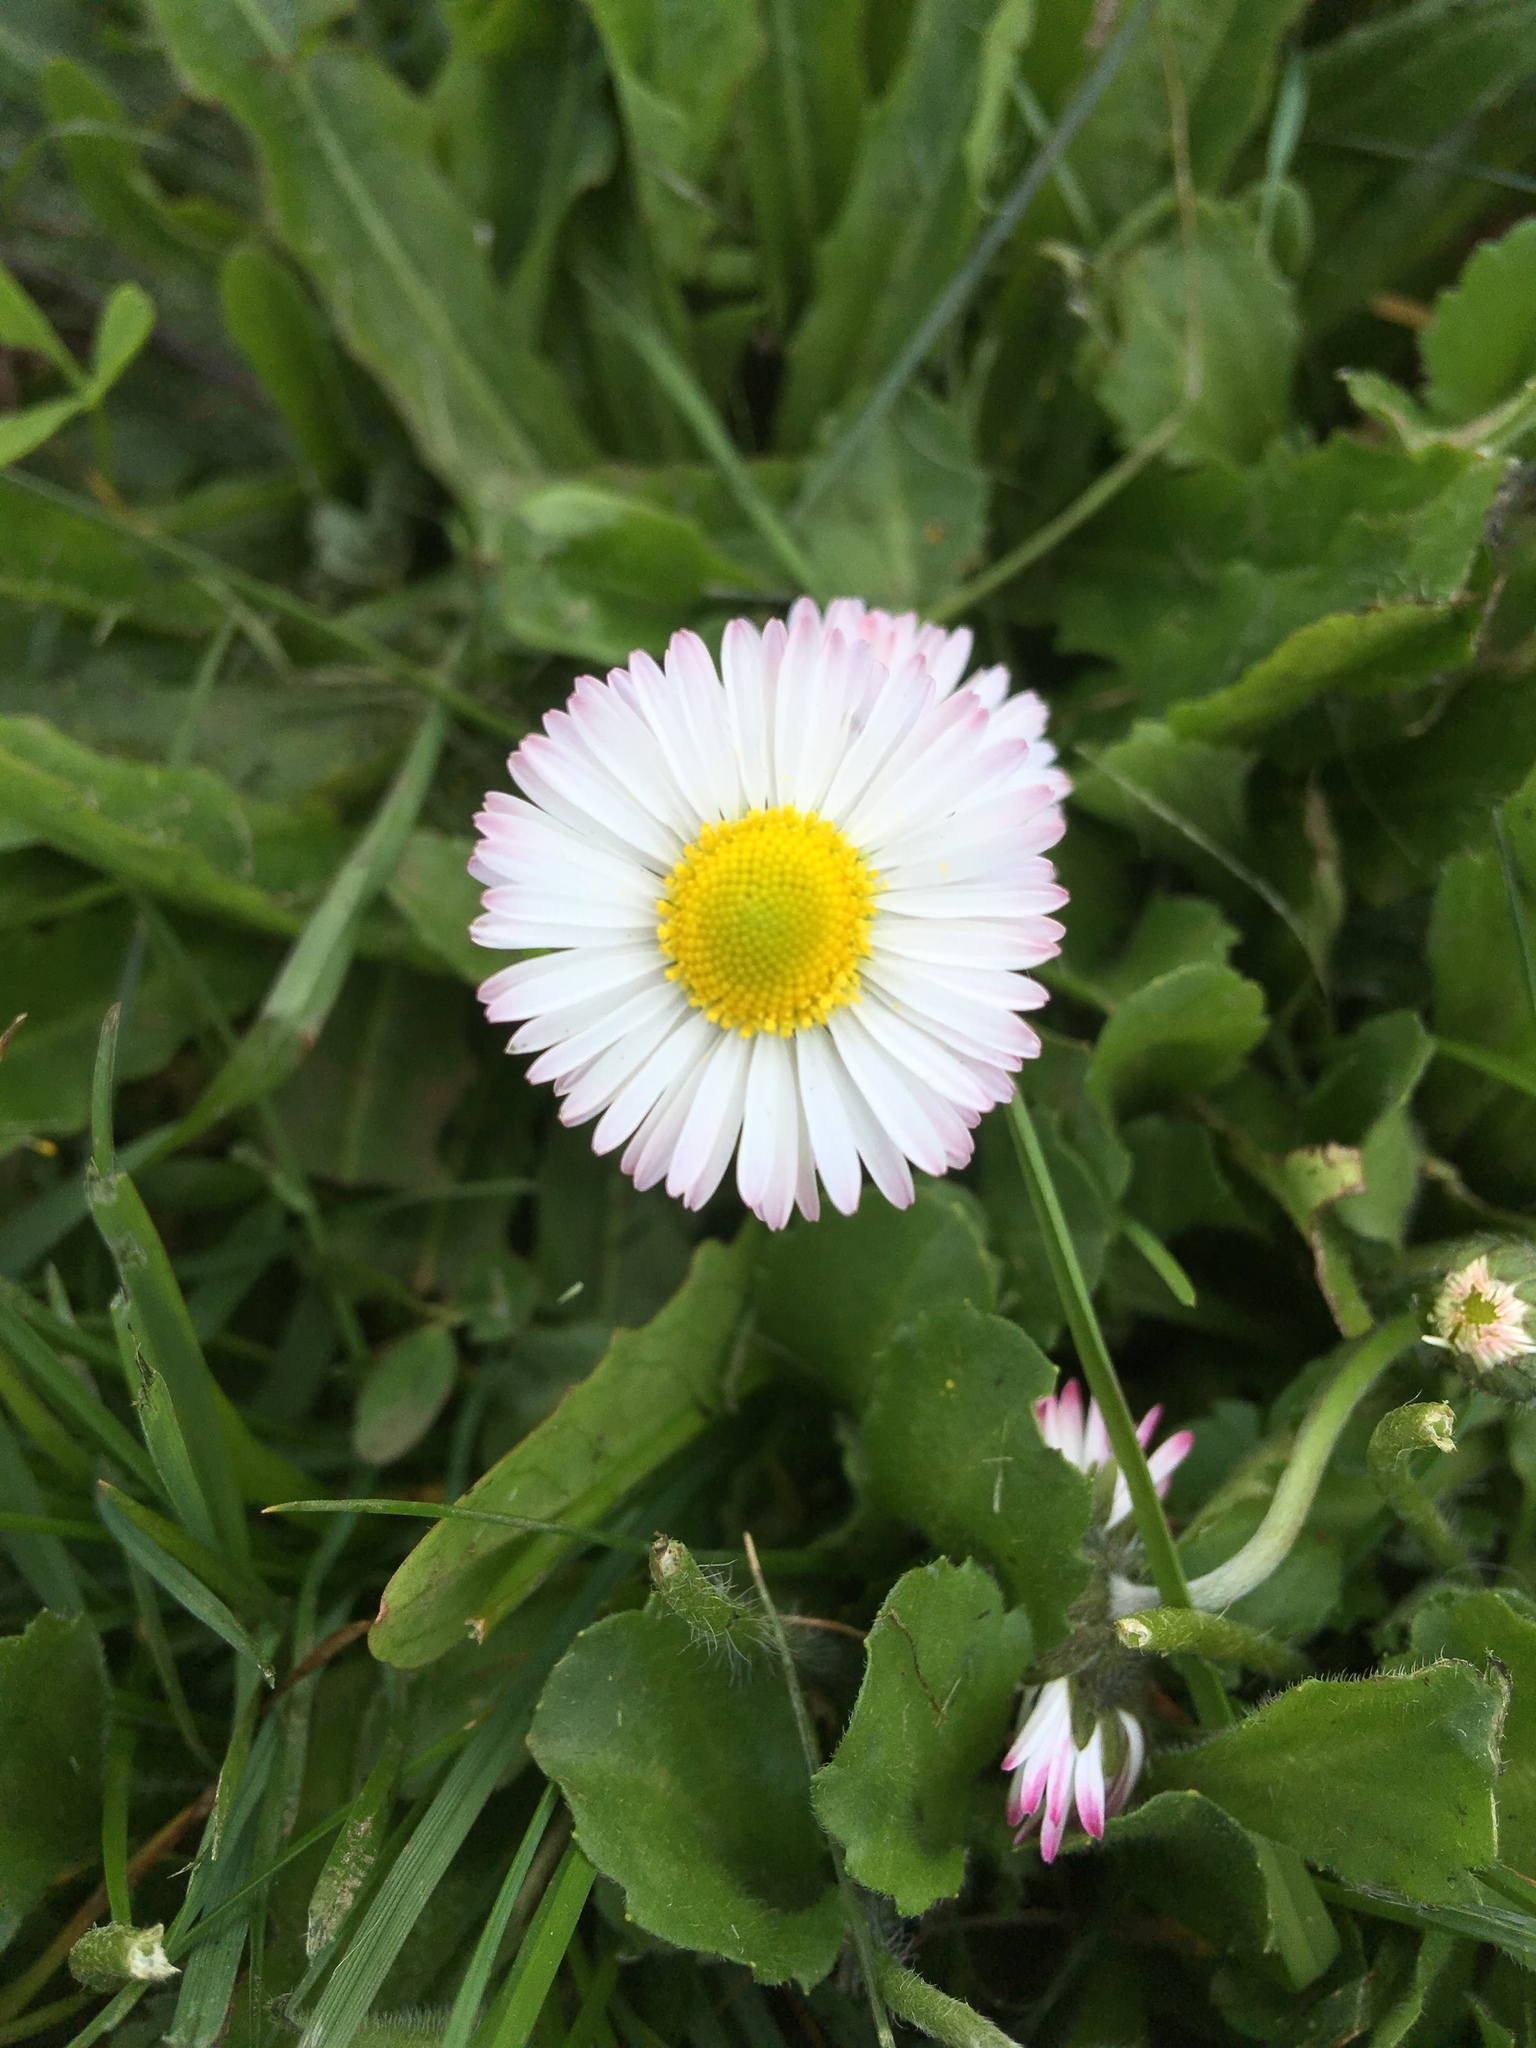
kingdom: Plantae
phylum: Tracheophyta
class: Magnoliopsida
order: Asterales
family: Asteraceae
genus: Bellis
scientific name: Bellis perennis
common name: Lawndaisy
